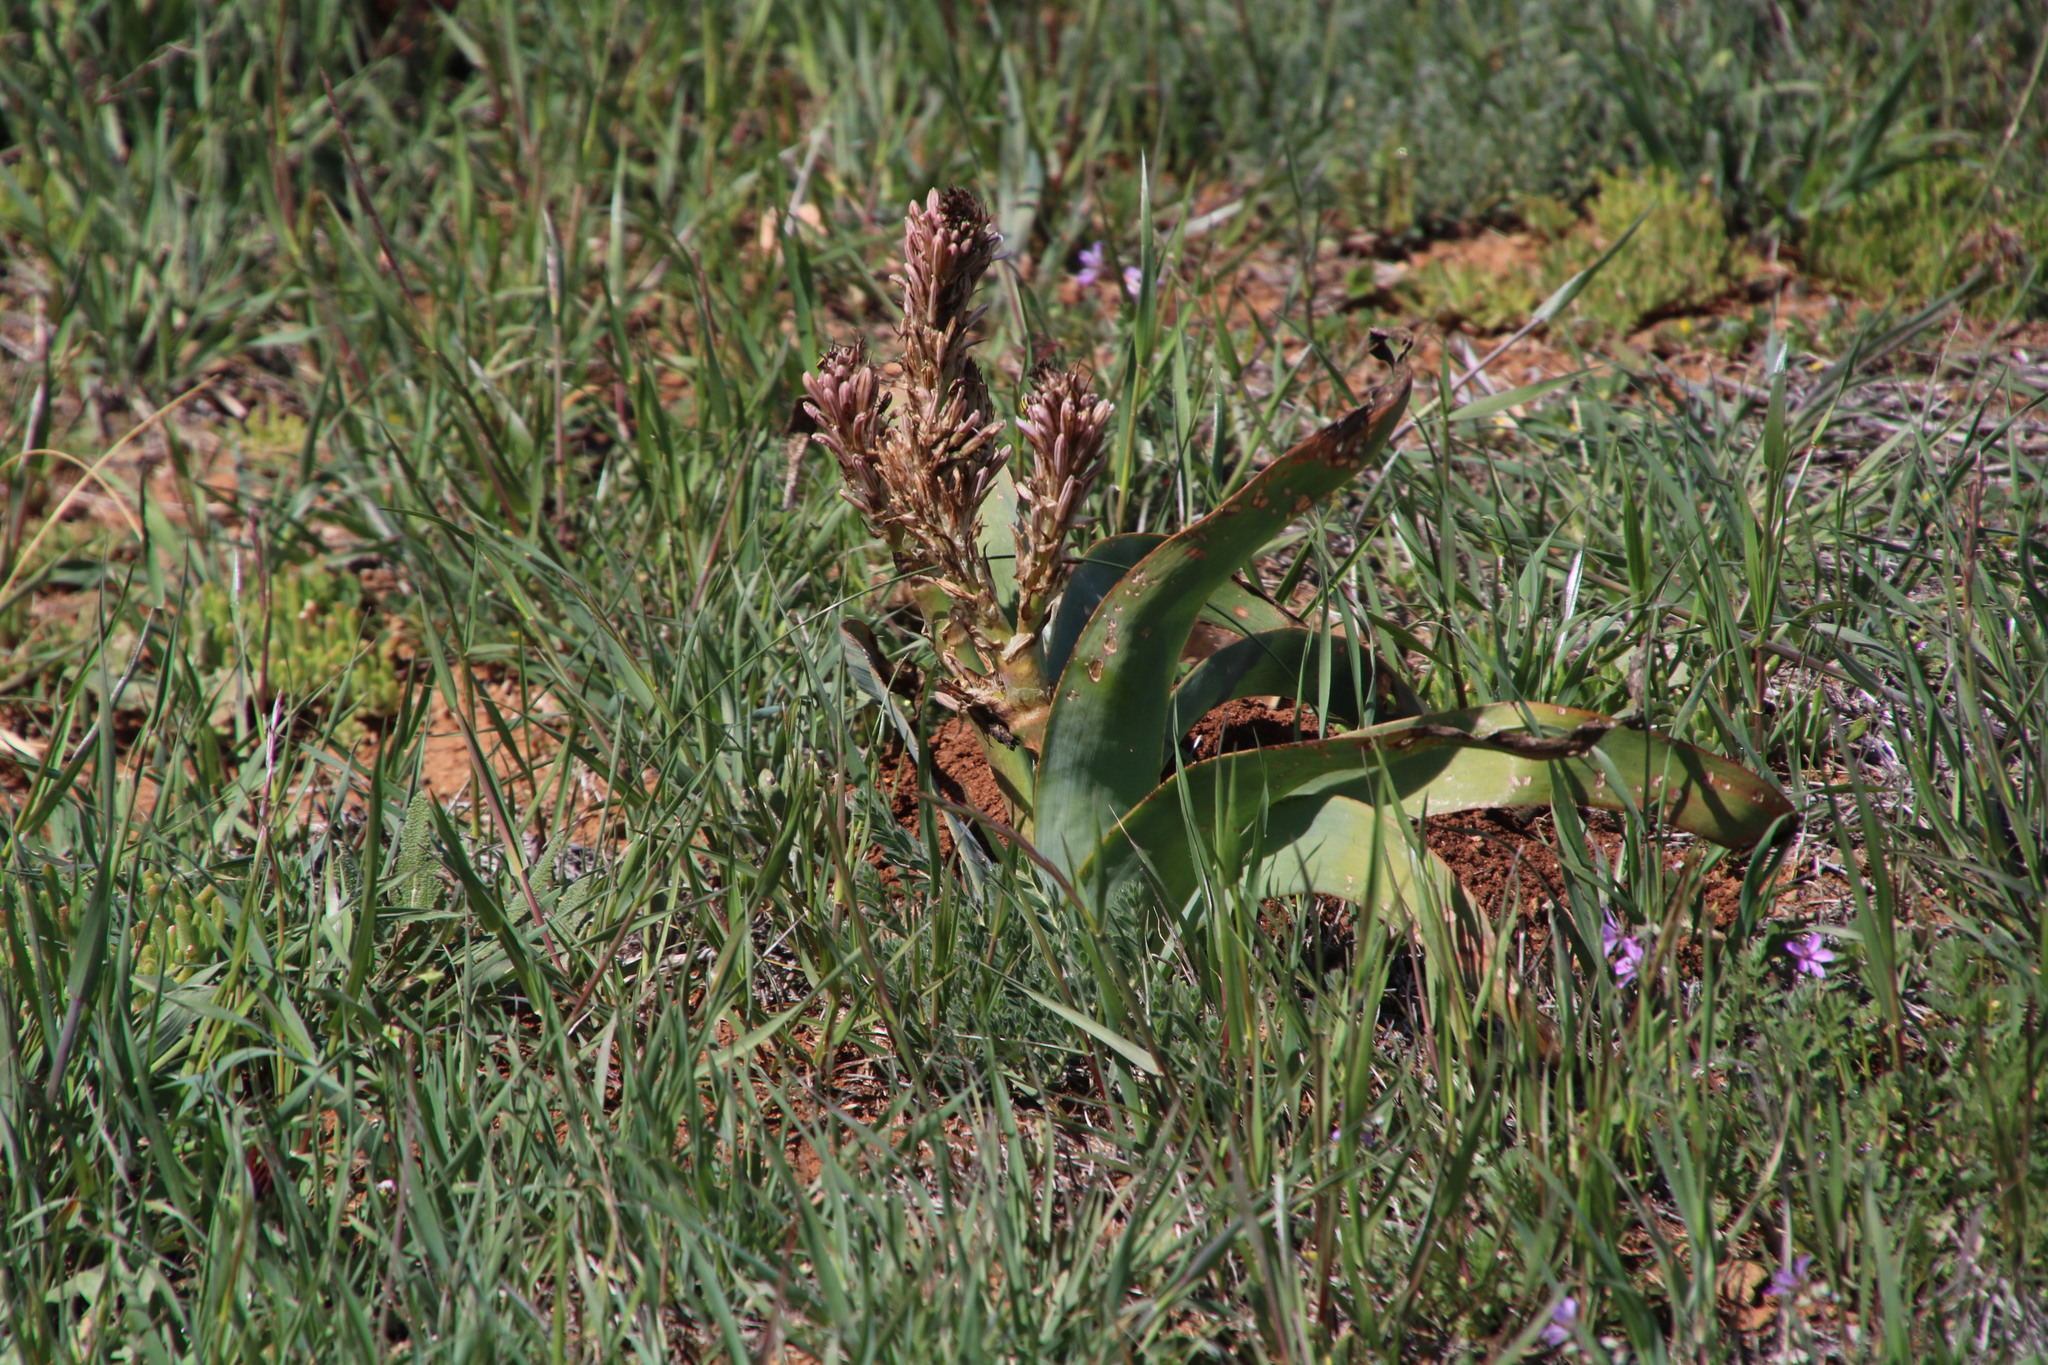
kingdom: Plantae
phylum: Tracheophyta
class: Liliopsida
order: Asparagales
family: Asphodelaceae
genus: Trachyandra
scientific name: Trachyandra falcata
